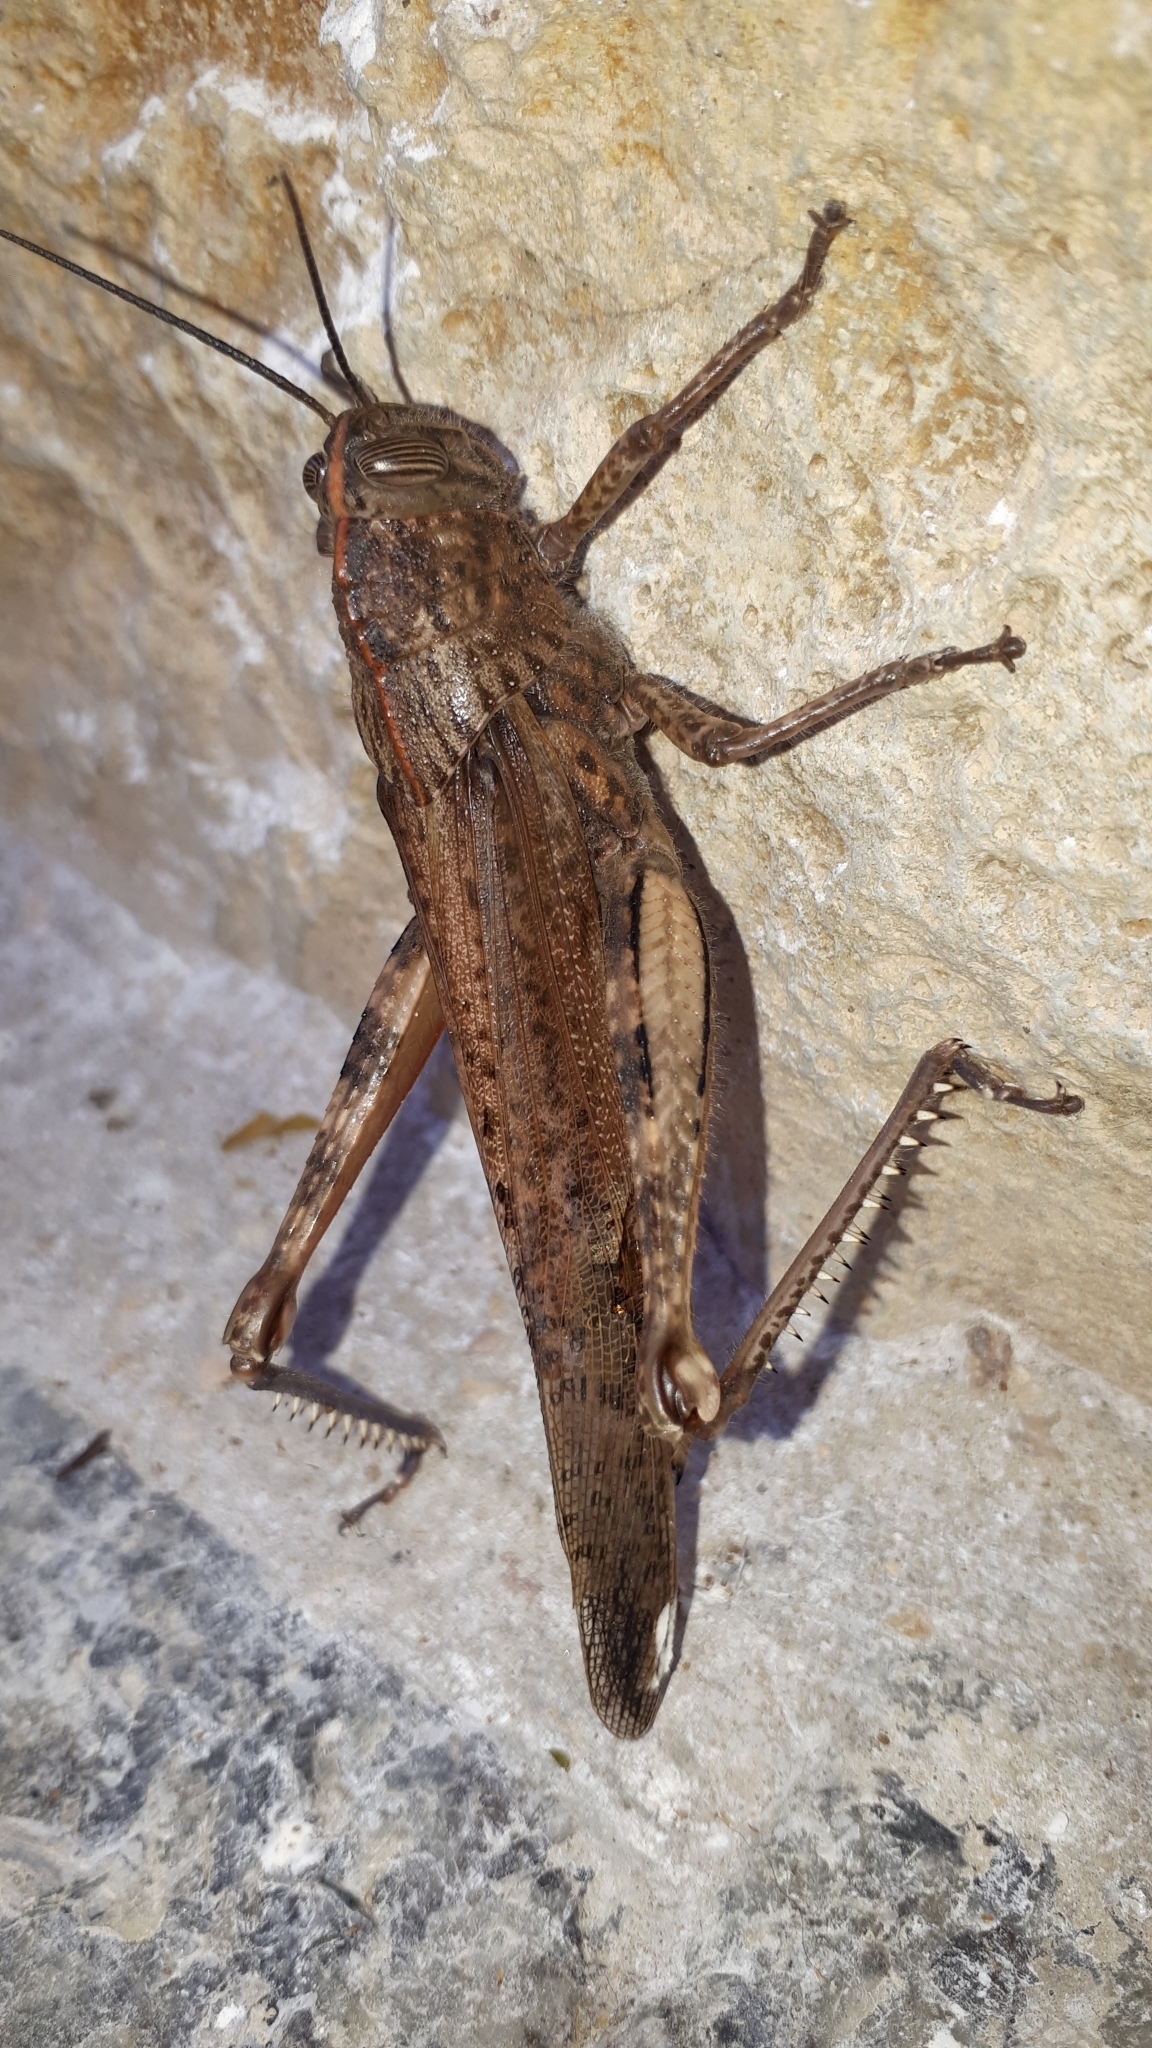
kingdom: Animalia
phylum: Arthropoda
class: Insecta
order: Orthoptera
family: Acrididae
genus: Anacridium
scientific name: Anacridium aegyptium
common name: Egyptian grasshopper
